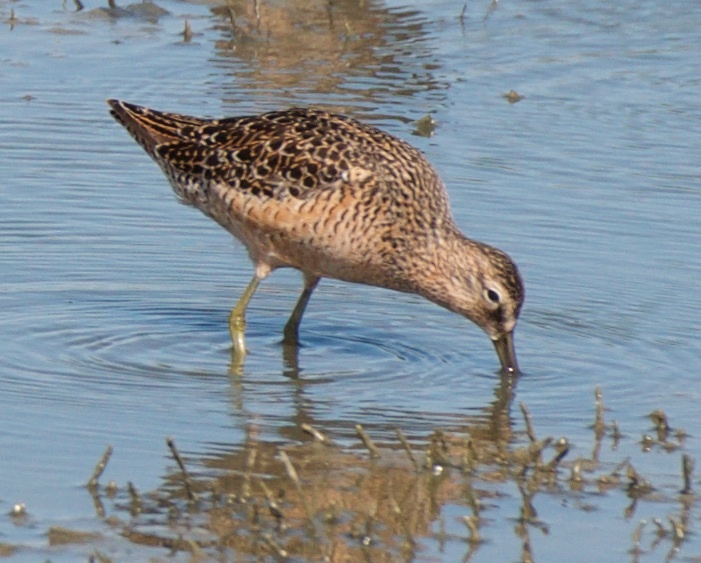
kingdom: Animalia
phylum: Chordata
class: Aves
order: Charadriiformes
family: Scolopacidae
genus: Limnodromus
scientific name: Limnodromus scolopaceus
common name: Long-billed dowitcher
